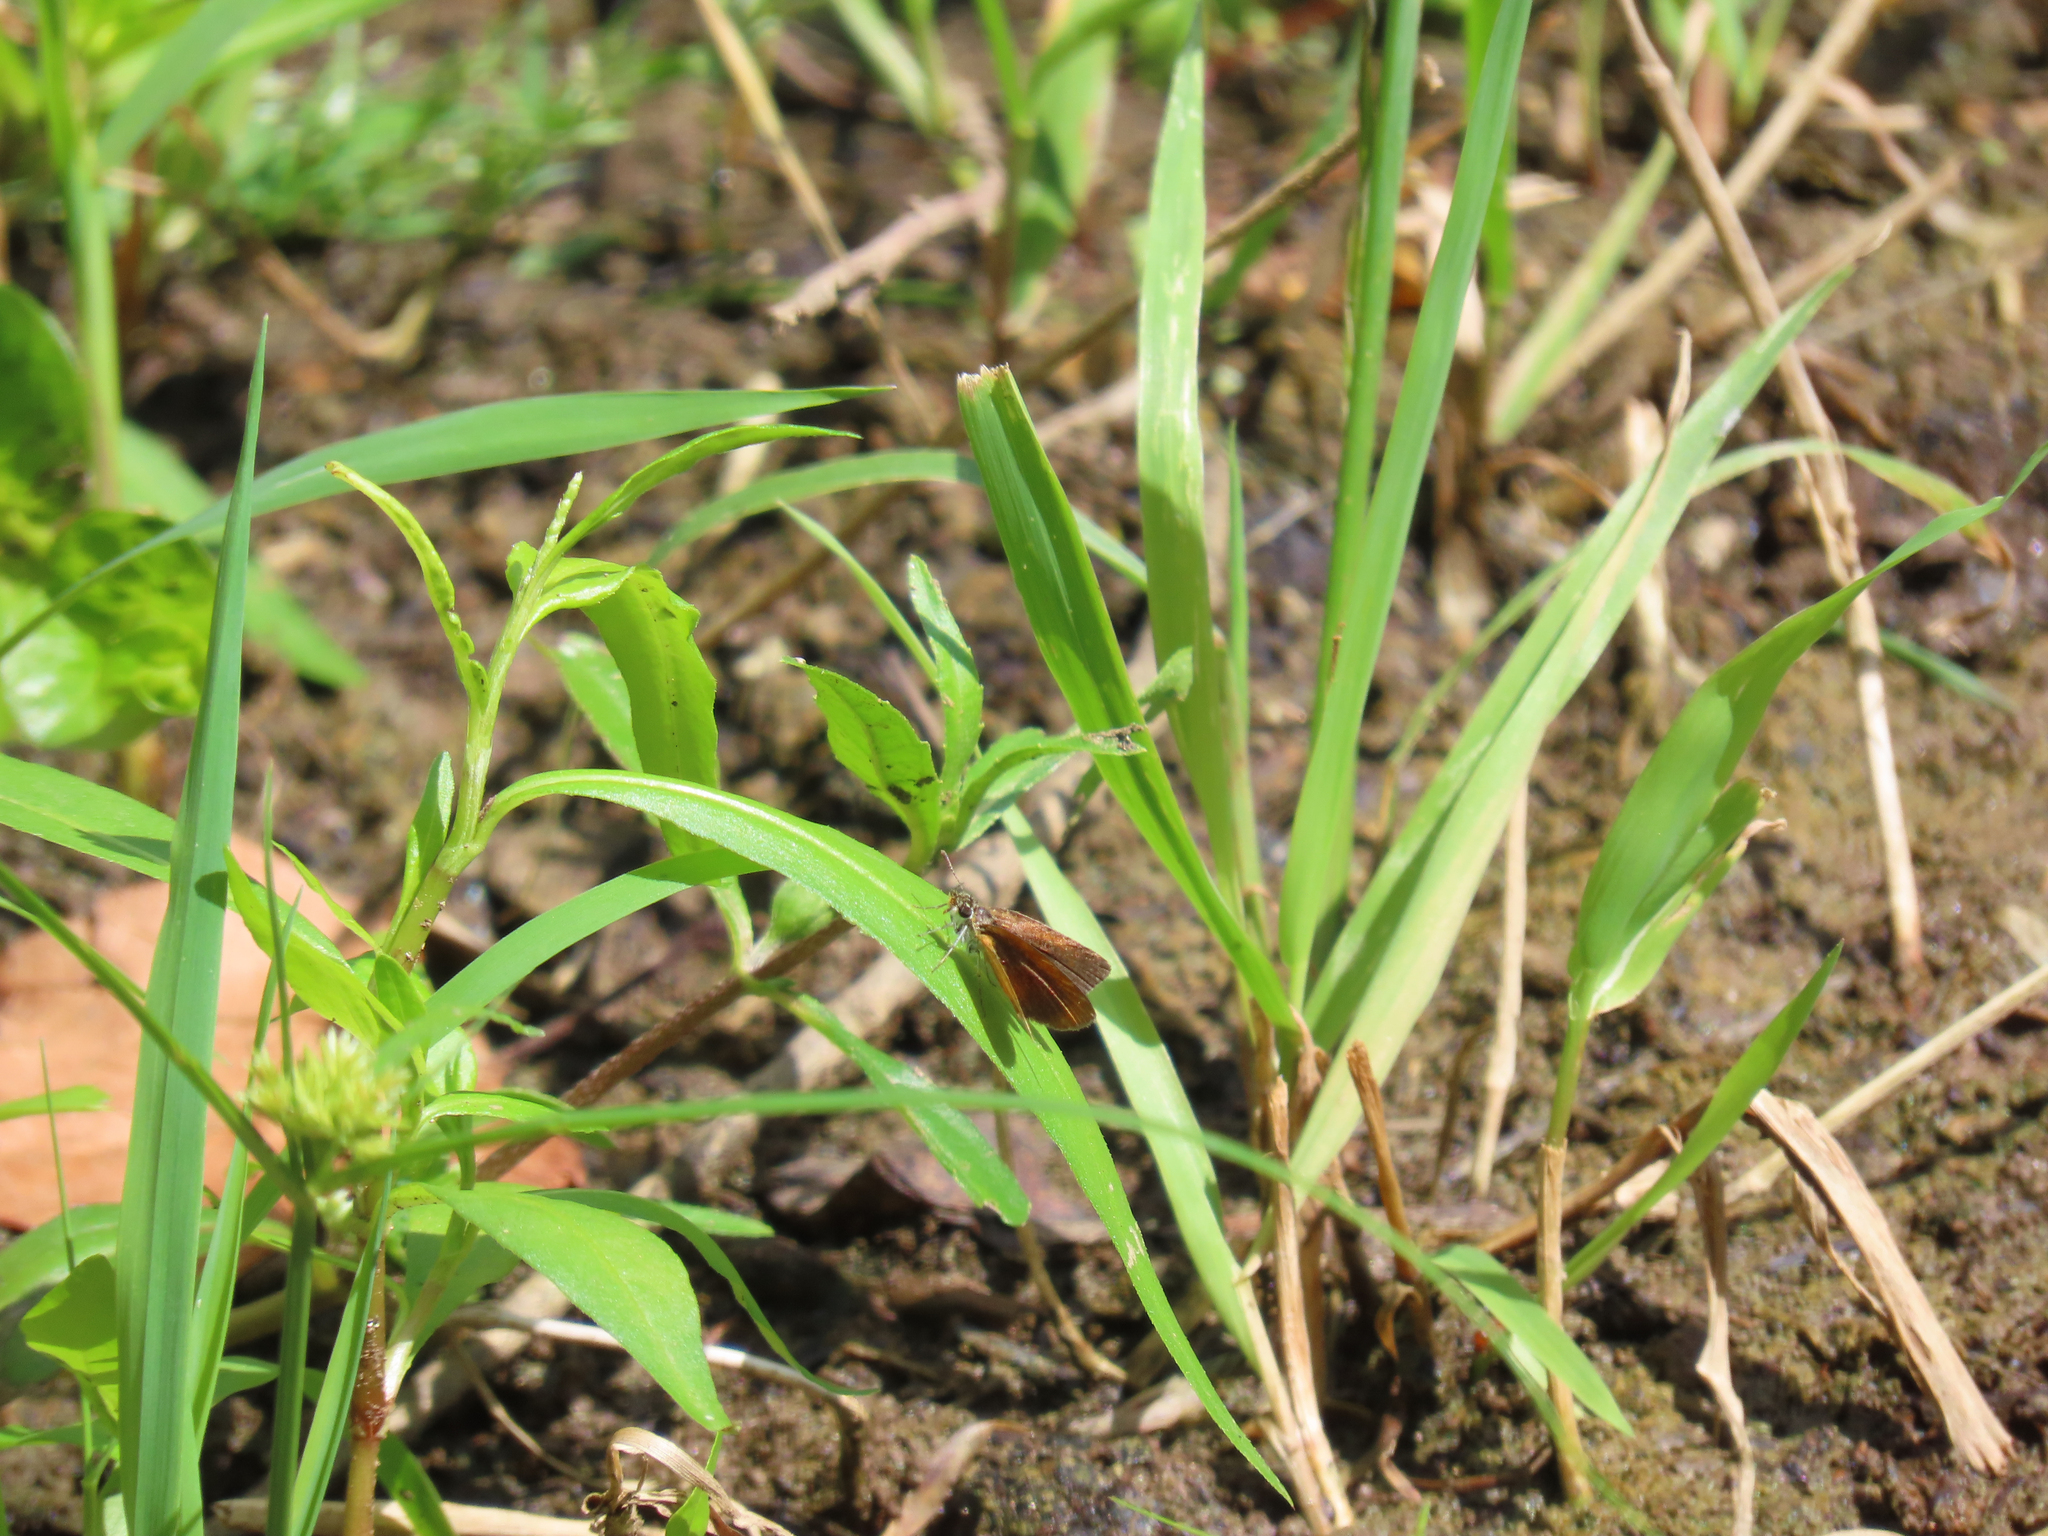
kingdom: Animalia
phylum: Arthropoda
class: Insecta
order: Lepidoptera
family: Hesperiidae
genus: Ancyloxypha
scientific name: Ancyloxypha numitor
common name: Least skipper
